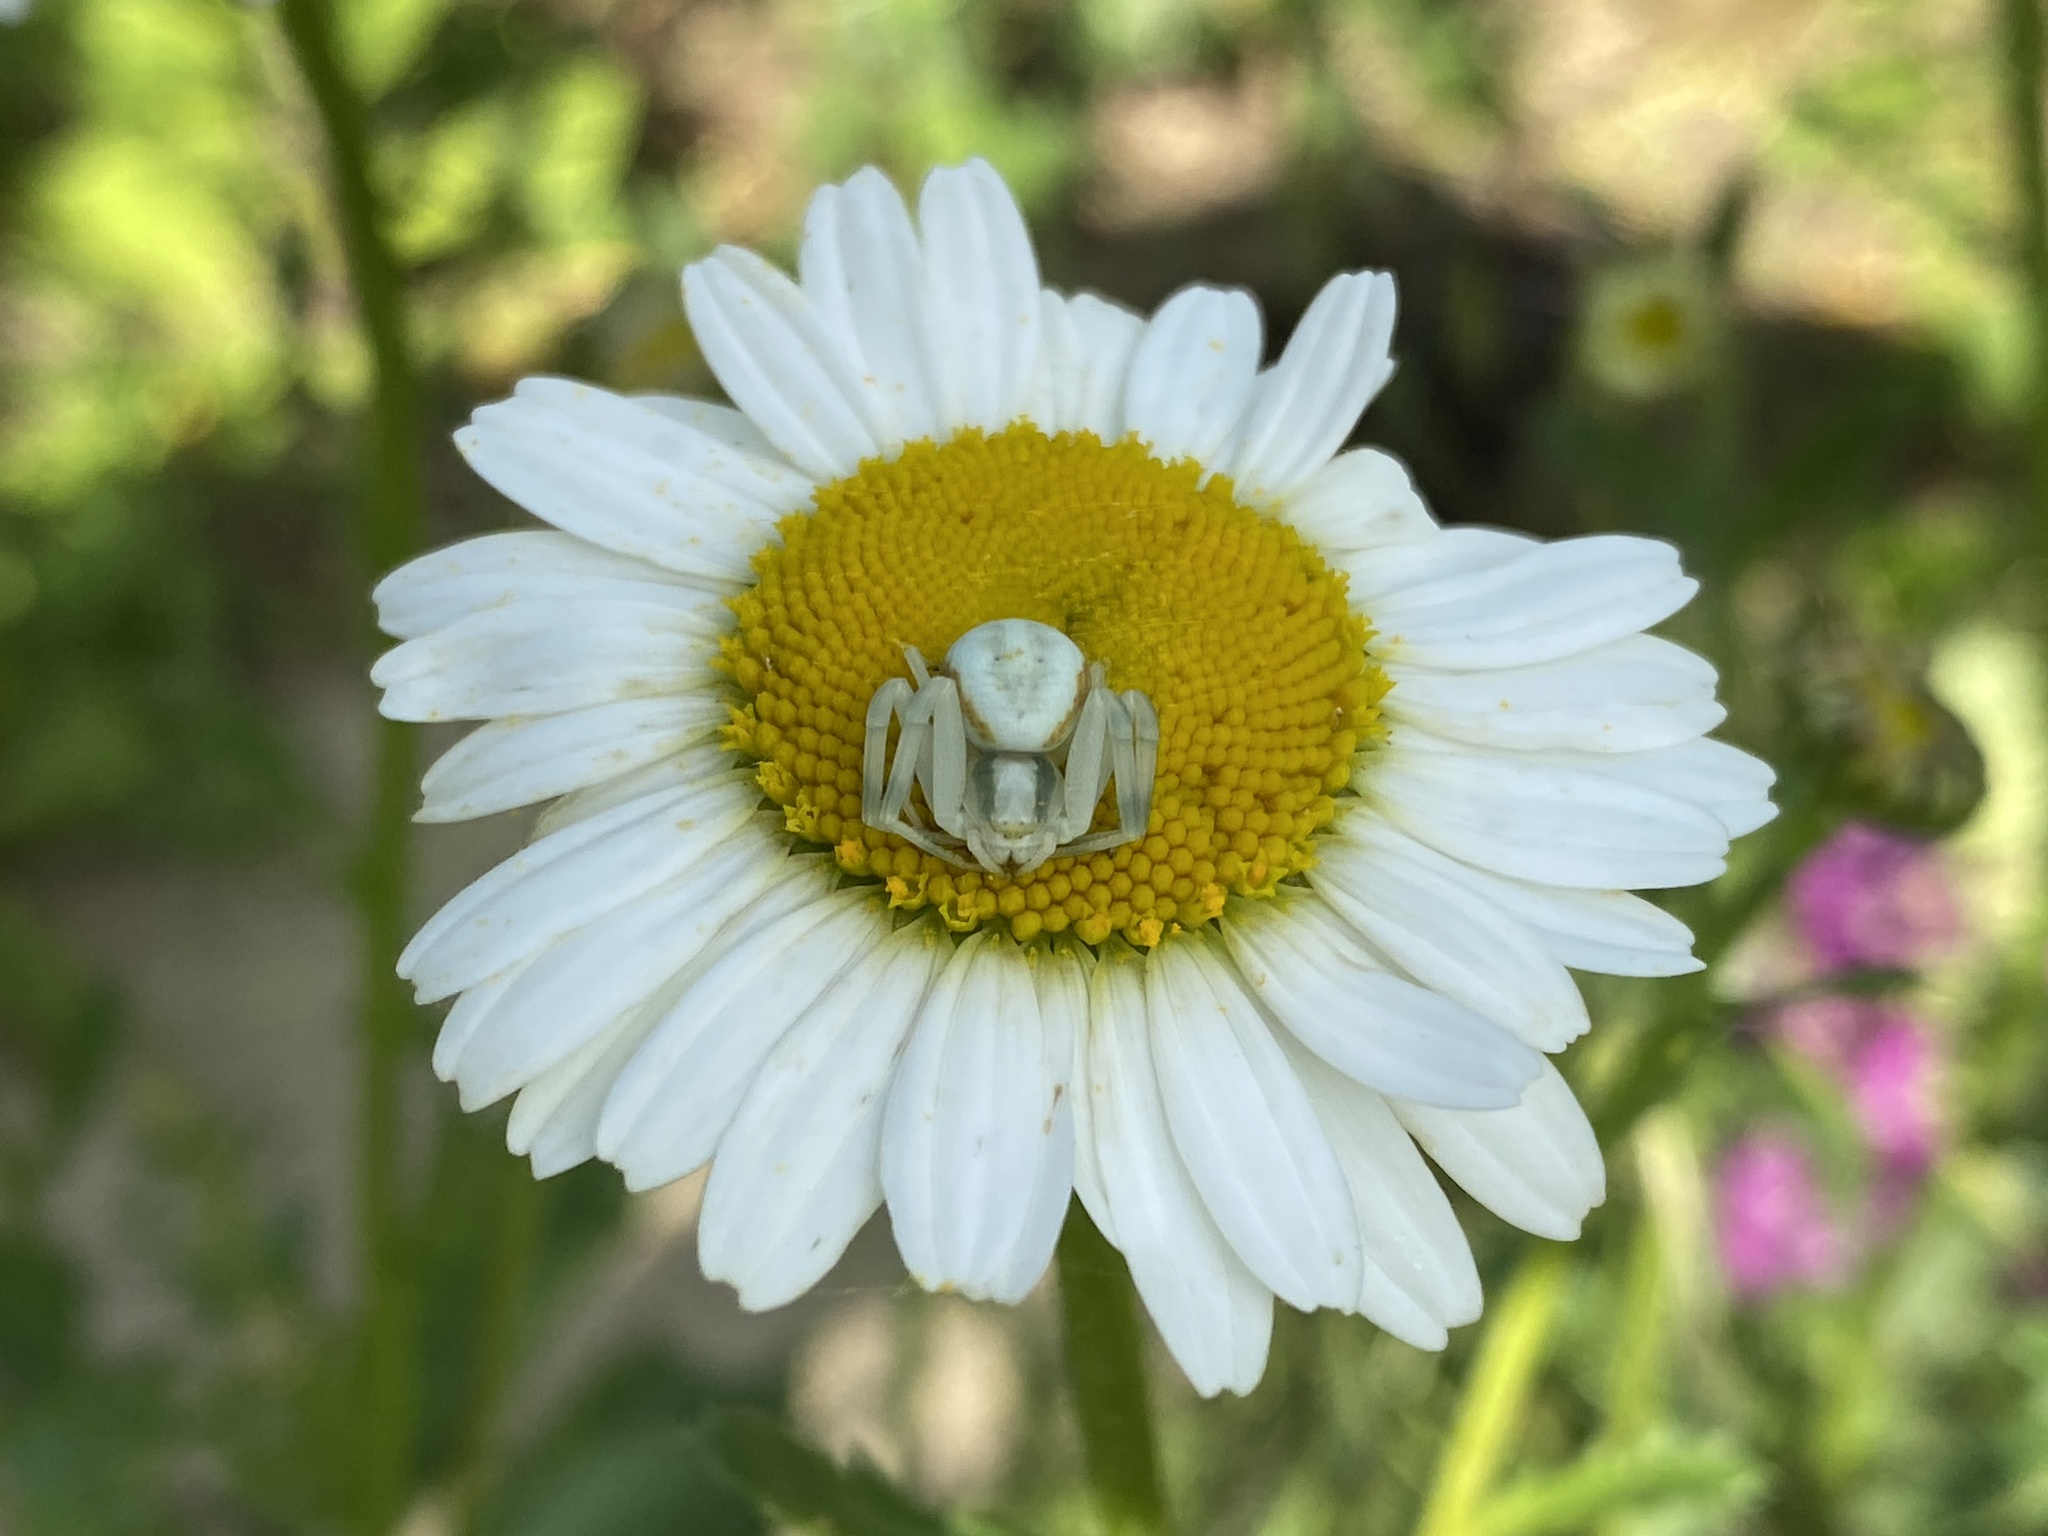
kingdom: Animalia
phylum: Arthropoda
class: Arachnida
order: Araneae
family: Thomisidae
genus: Misumena
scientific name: Misumena vatia
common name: Goldenrod crab spider
